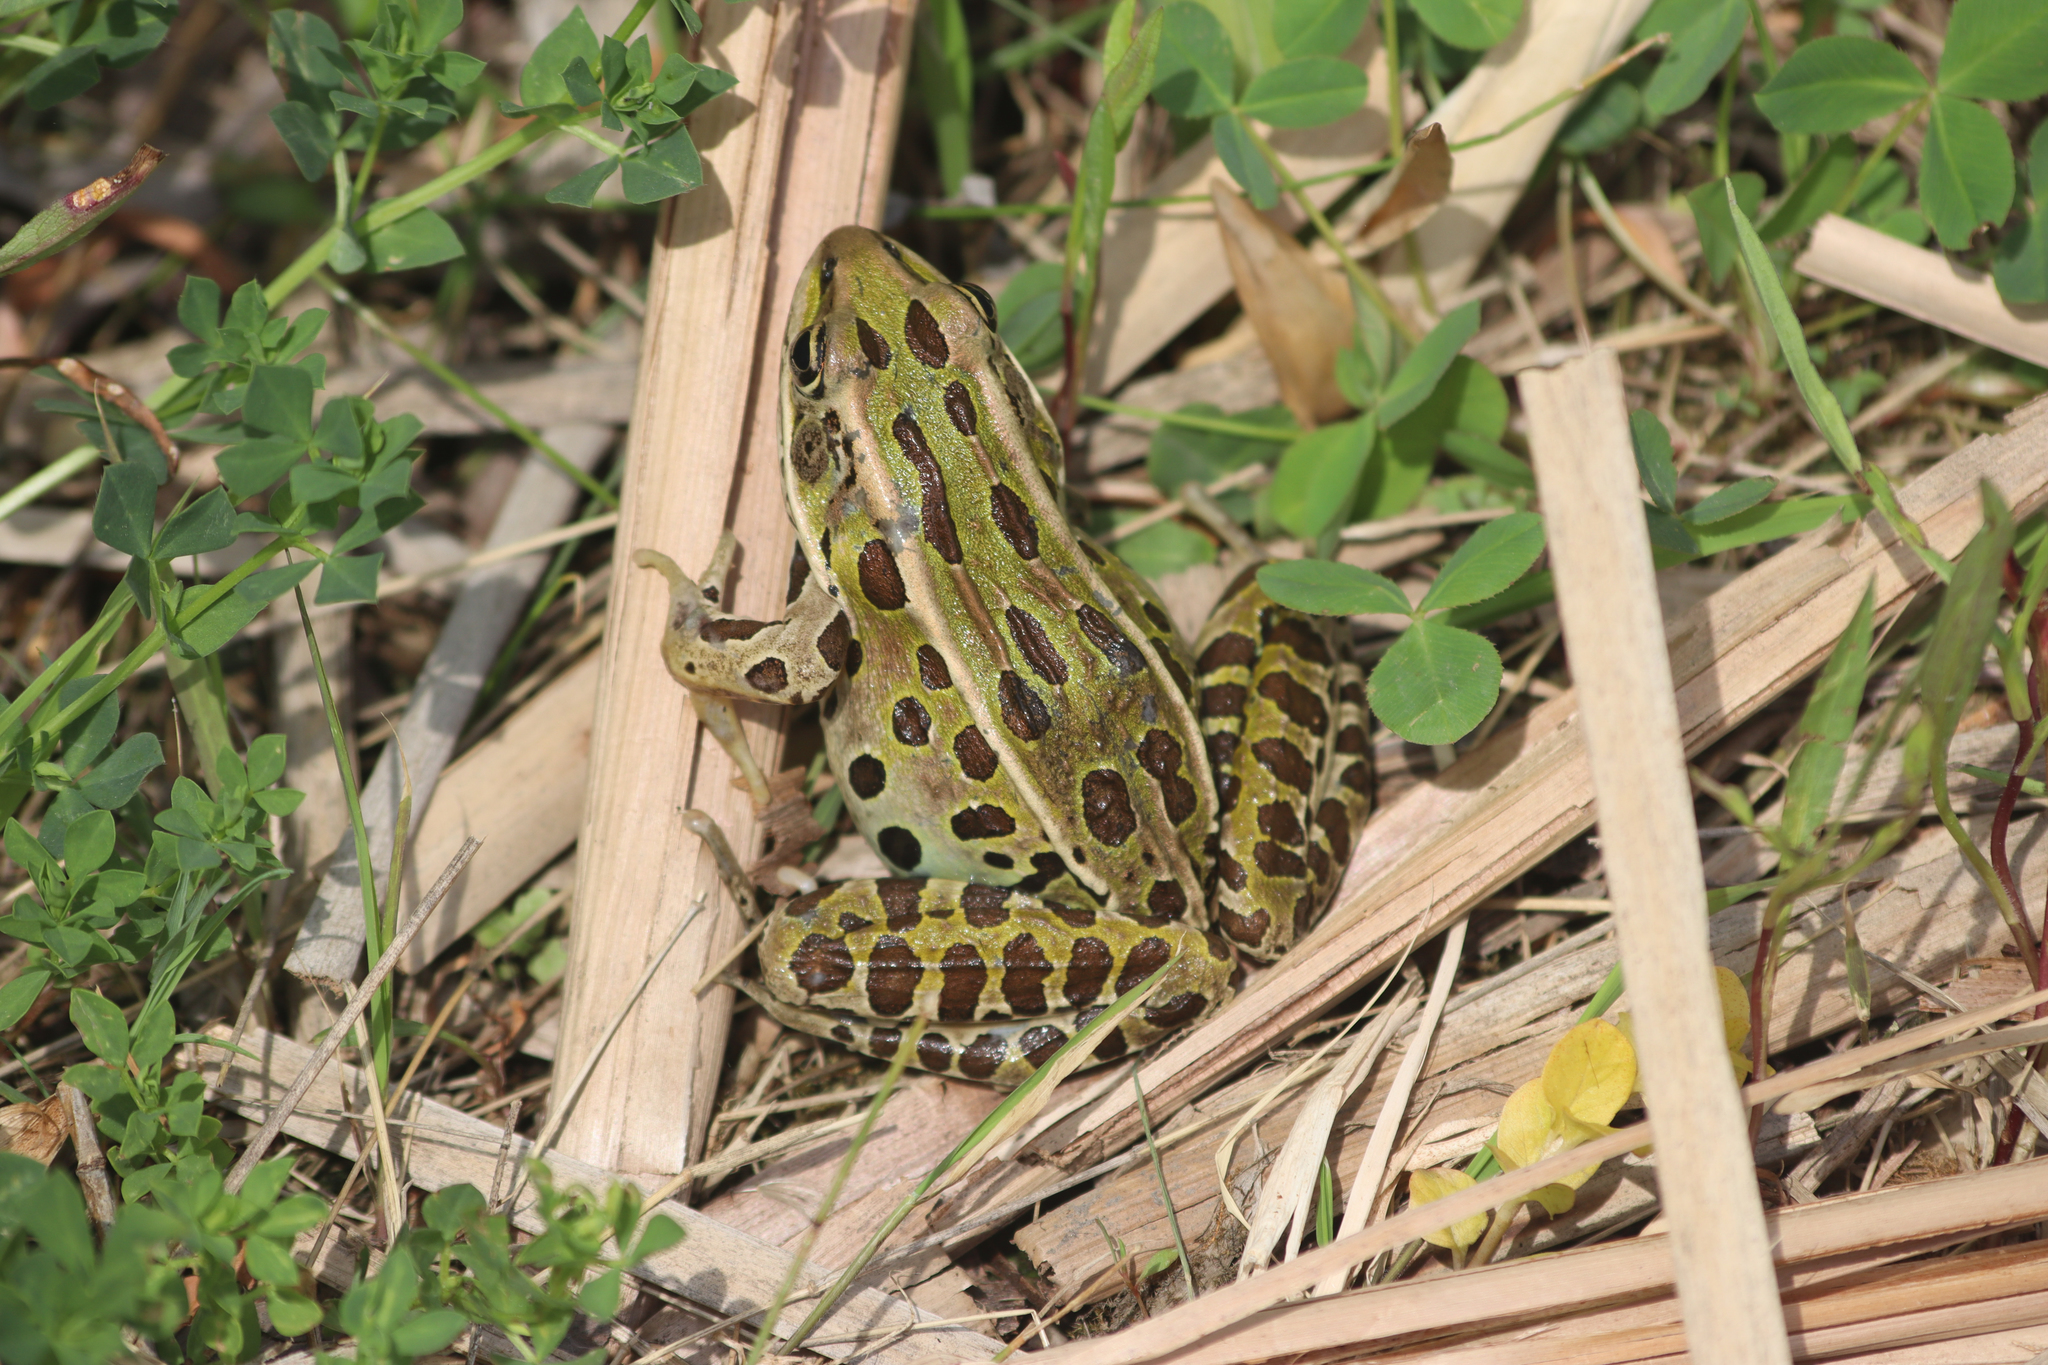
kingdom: Animalia
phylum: Chordata
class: Amphibia
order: Anura
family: Ranidae
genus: Lithobates
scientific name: Lithobates pipiens
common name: Northern leopard frog
